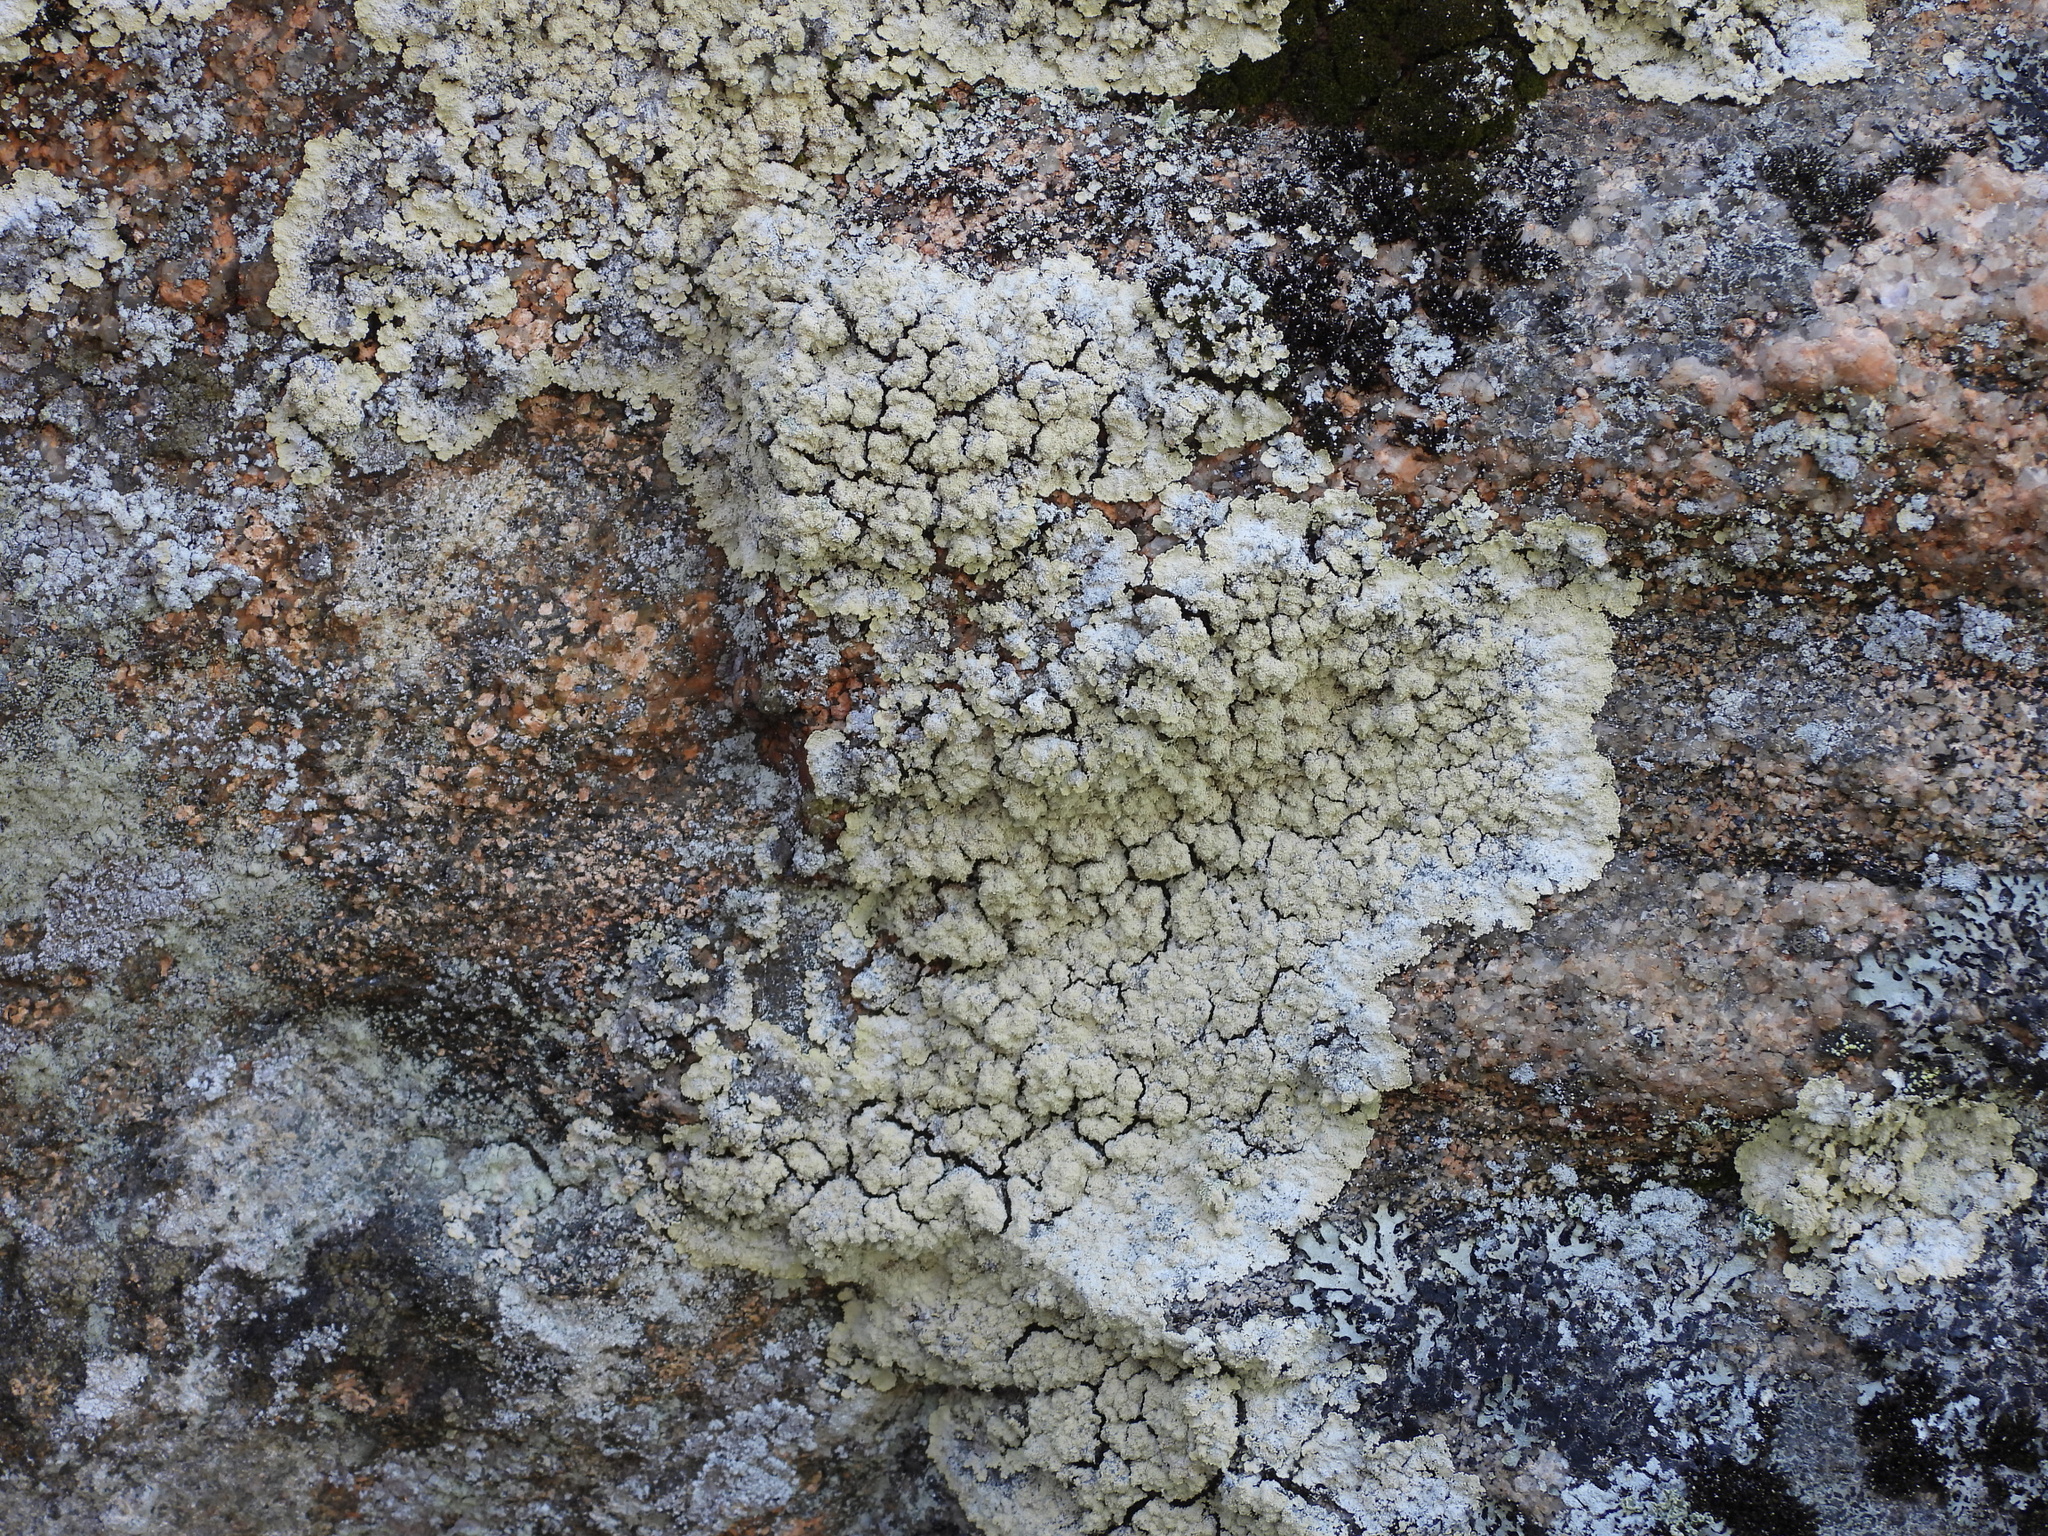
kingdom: Fungi
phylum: Ascomycota
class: Lecanoromycetes
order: Lecanorales
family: Stereocaulaceae
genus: Lepraria
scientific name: Lepraria membranacea
